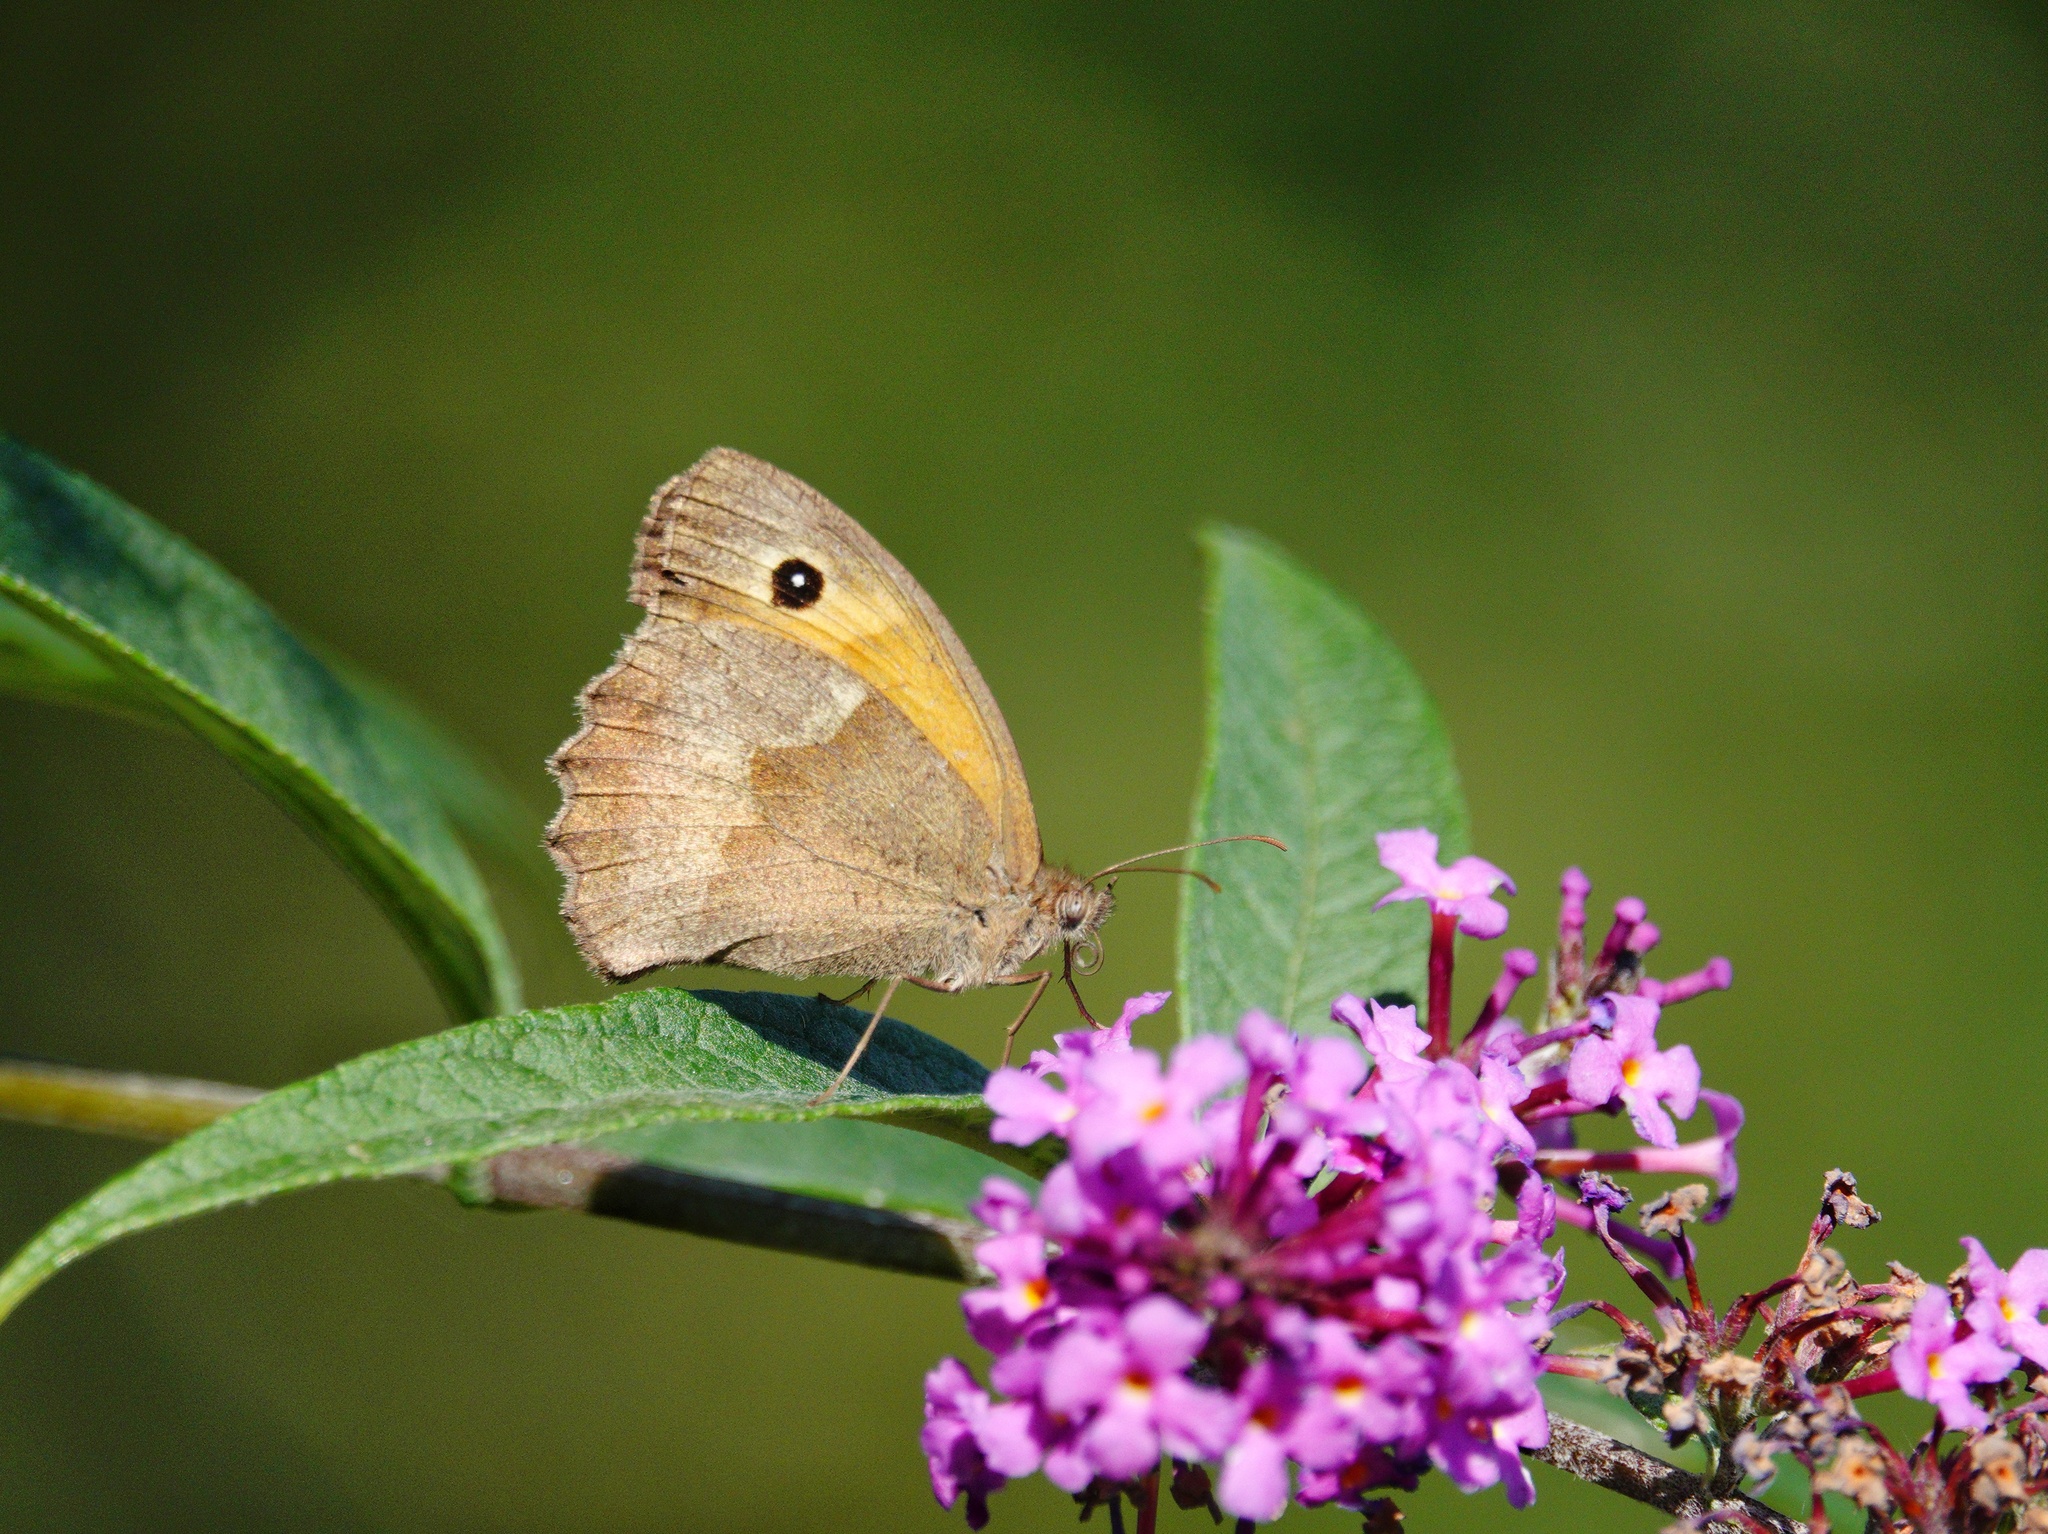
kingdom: Animalia
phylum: Arthropoda
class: Insecta
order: Lepidoptera
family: Nymphalidae
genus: Maniola
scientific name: Maniola jurtina
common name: Meadow brown
